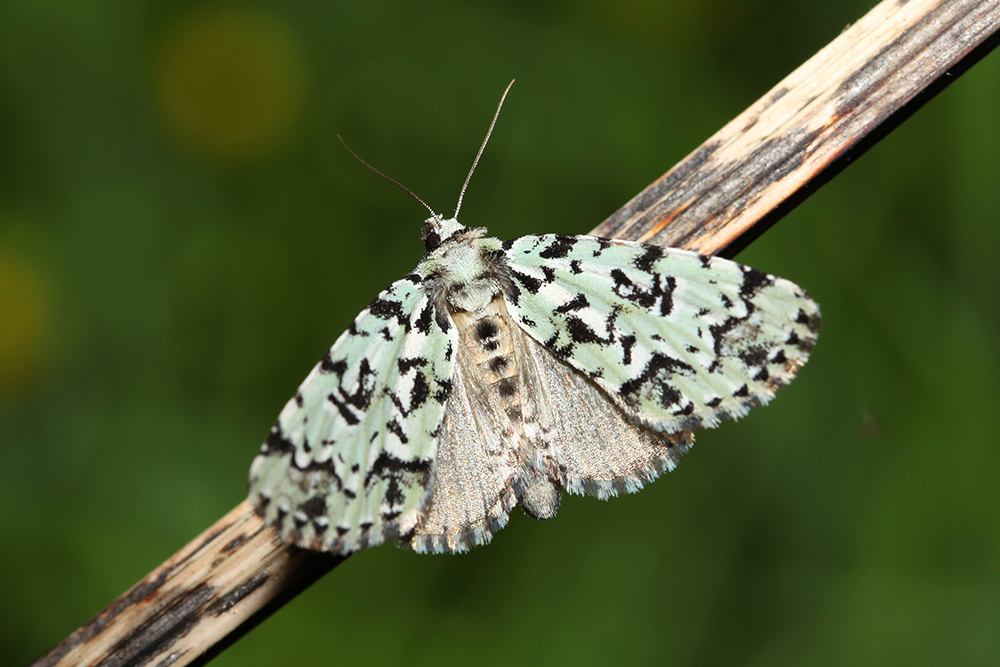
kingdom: Animalia
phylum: Arthropoda
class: Insecta
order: Lepidoptera
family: Noctuidae
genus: Moma
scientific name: Moma alpium
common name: Scarce merveille du jour
